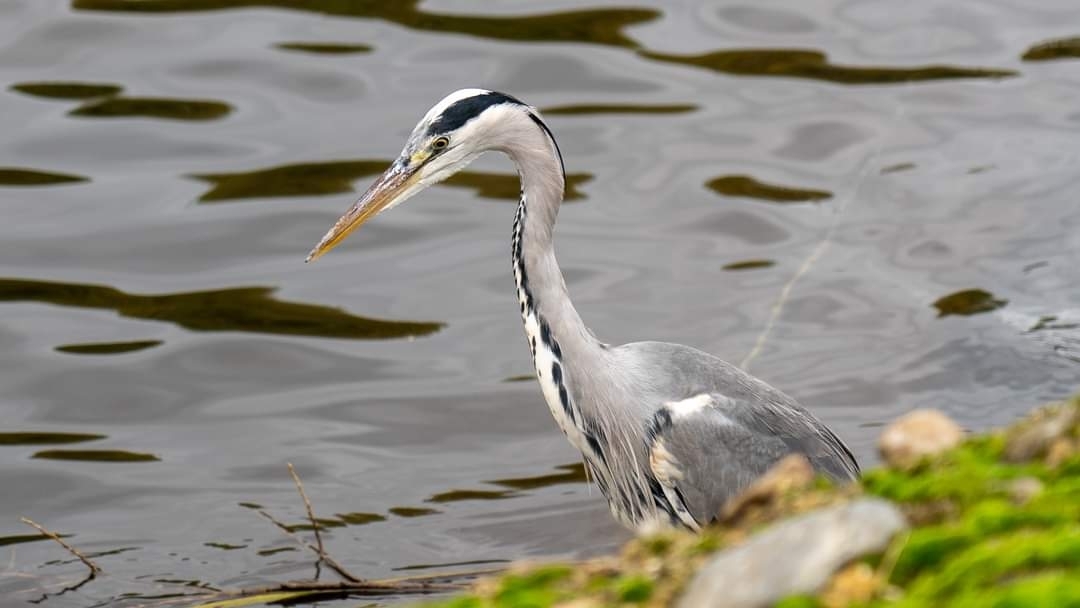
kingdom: Animalia
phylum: Chordata
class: Aves
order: Pelecaniformes
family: Ardeidae
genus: Ardea
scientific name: Ardea cinerea
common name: Grey heron
